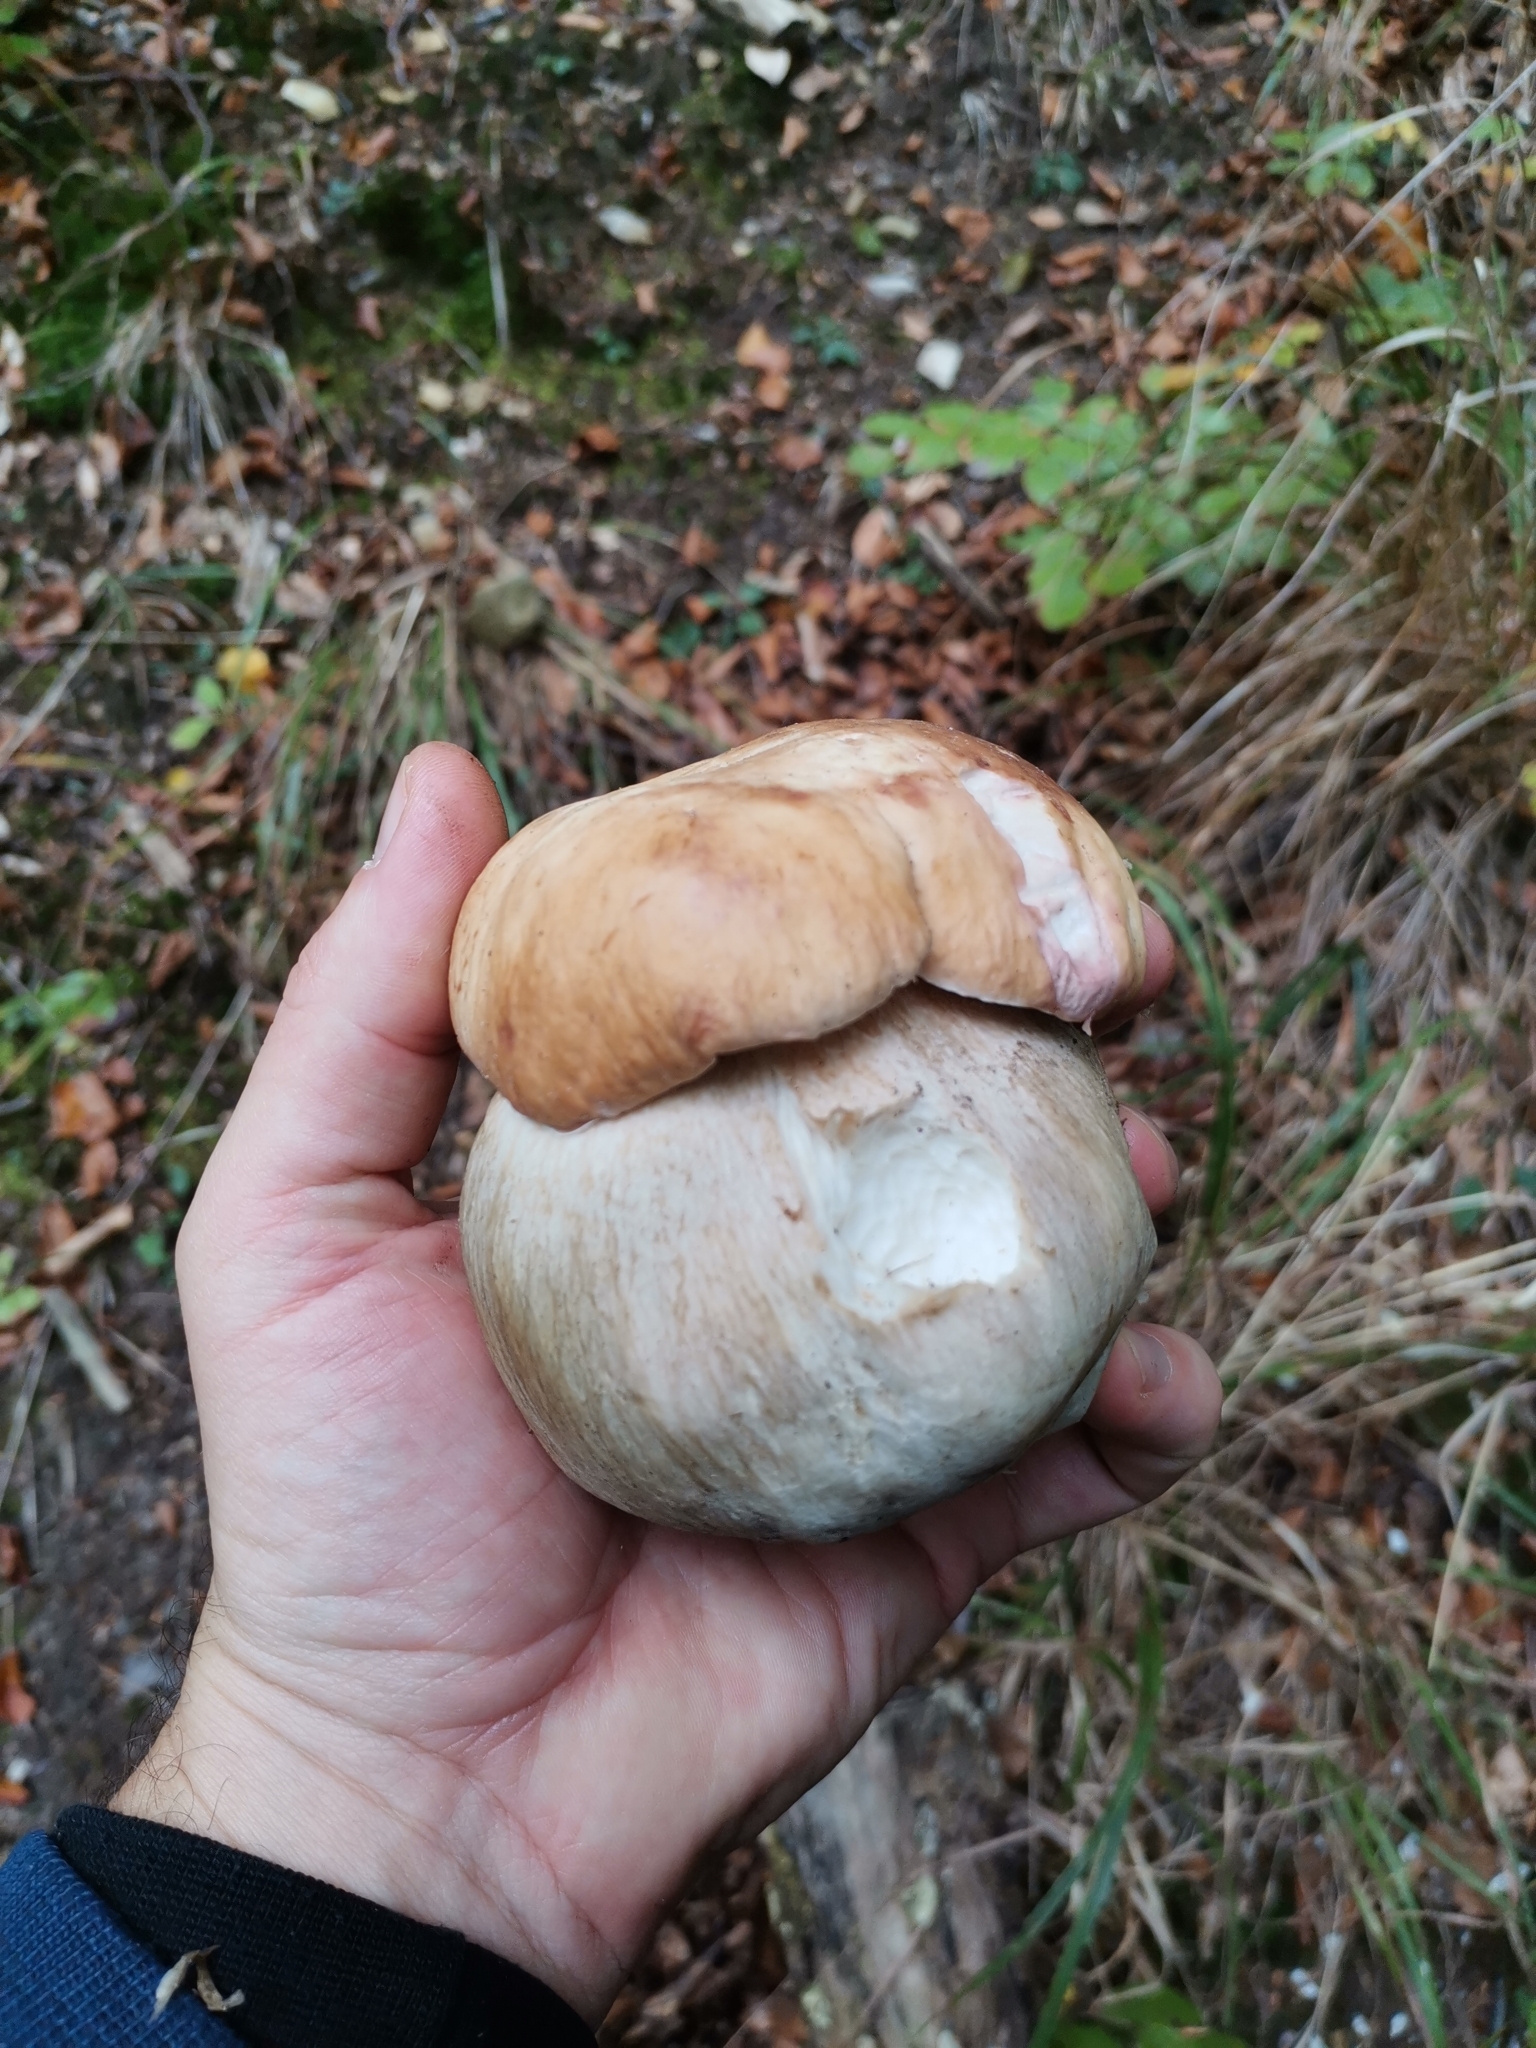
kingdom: Fungi
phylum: Basidiomycota
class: Agaricomycetes
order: Boletales
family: Boletaceae
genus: Boletus
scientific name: Boletus edulis
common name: Cep
